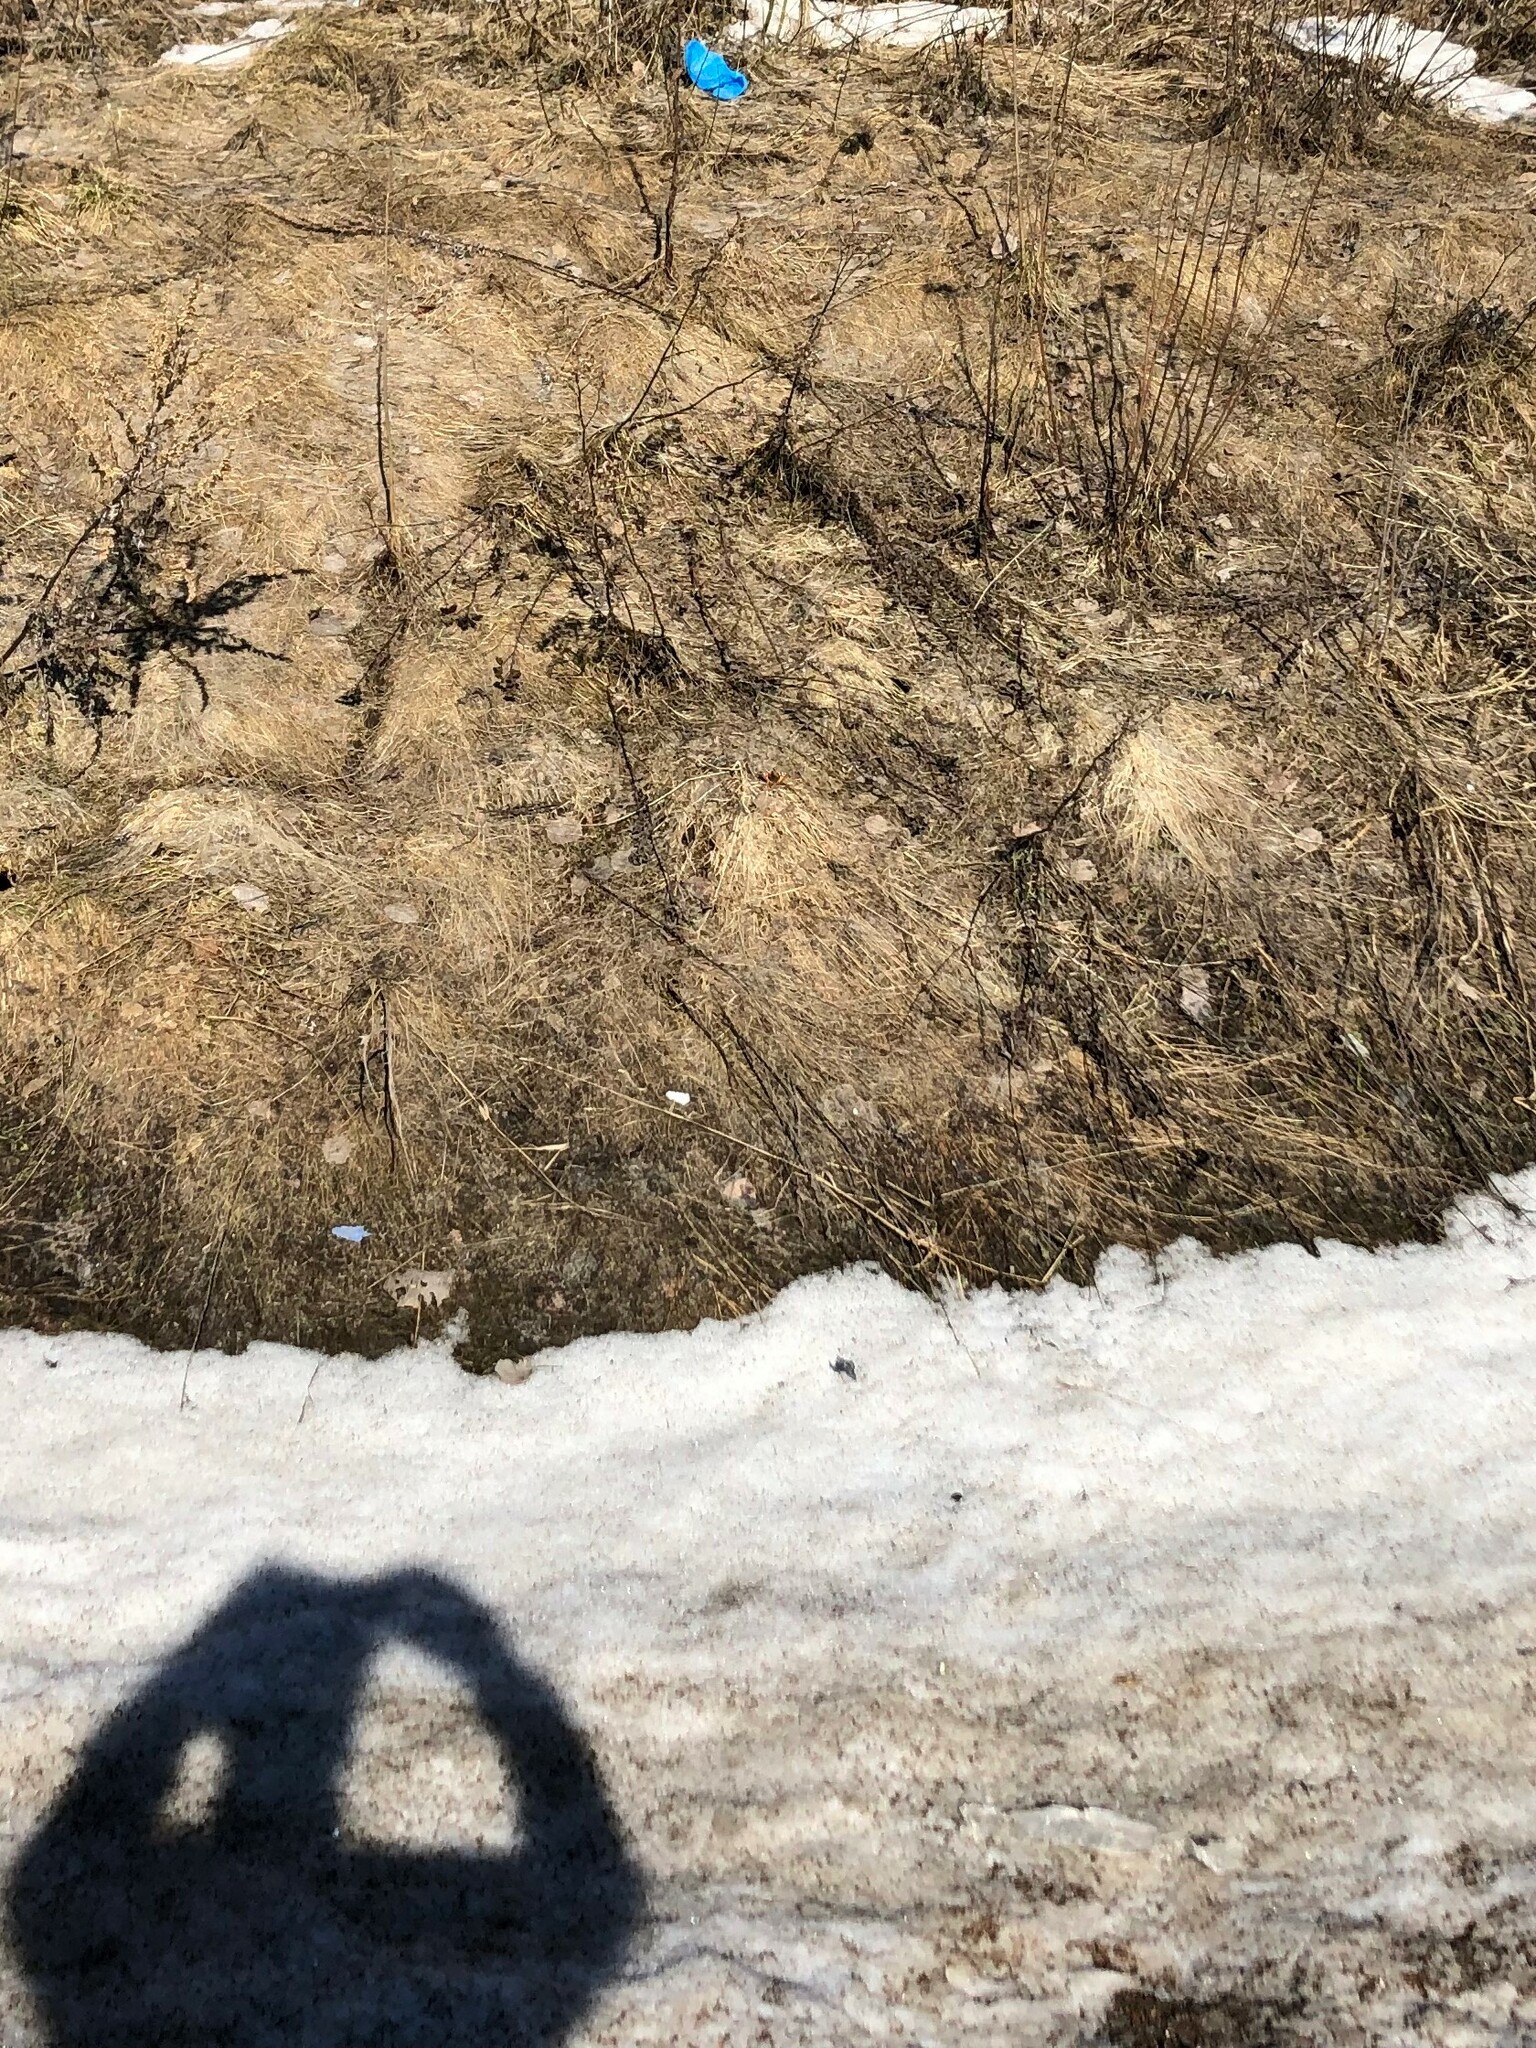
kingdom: Animalia
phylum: Arthropoda
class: Insecta
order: Lepidoptera
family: Nymphalidae
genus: Aglais
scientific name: Aglais urticae
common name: Small tortoiseshell
